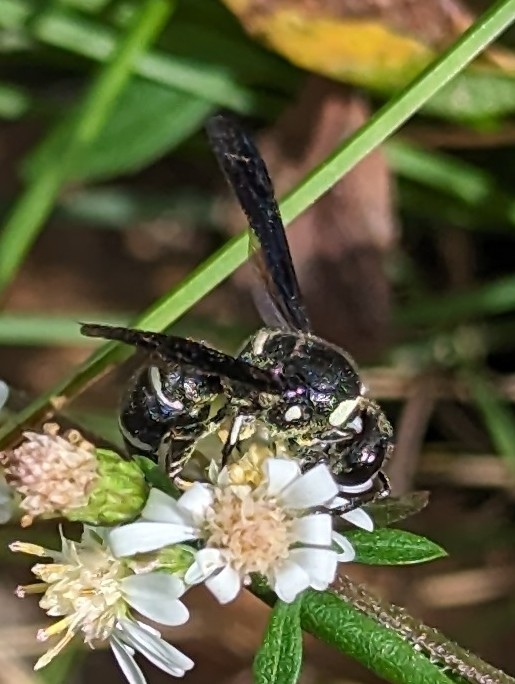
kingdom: Animalia
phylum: Arthropoda
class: Insecta
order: Hymenoptera
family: Eumenidae
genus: Euodynerus
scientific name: Euodynerus schwarzi
